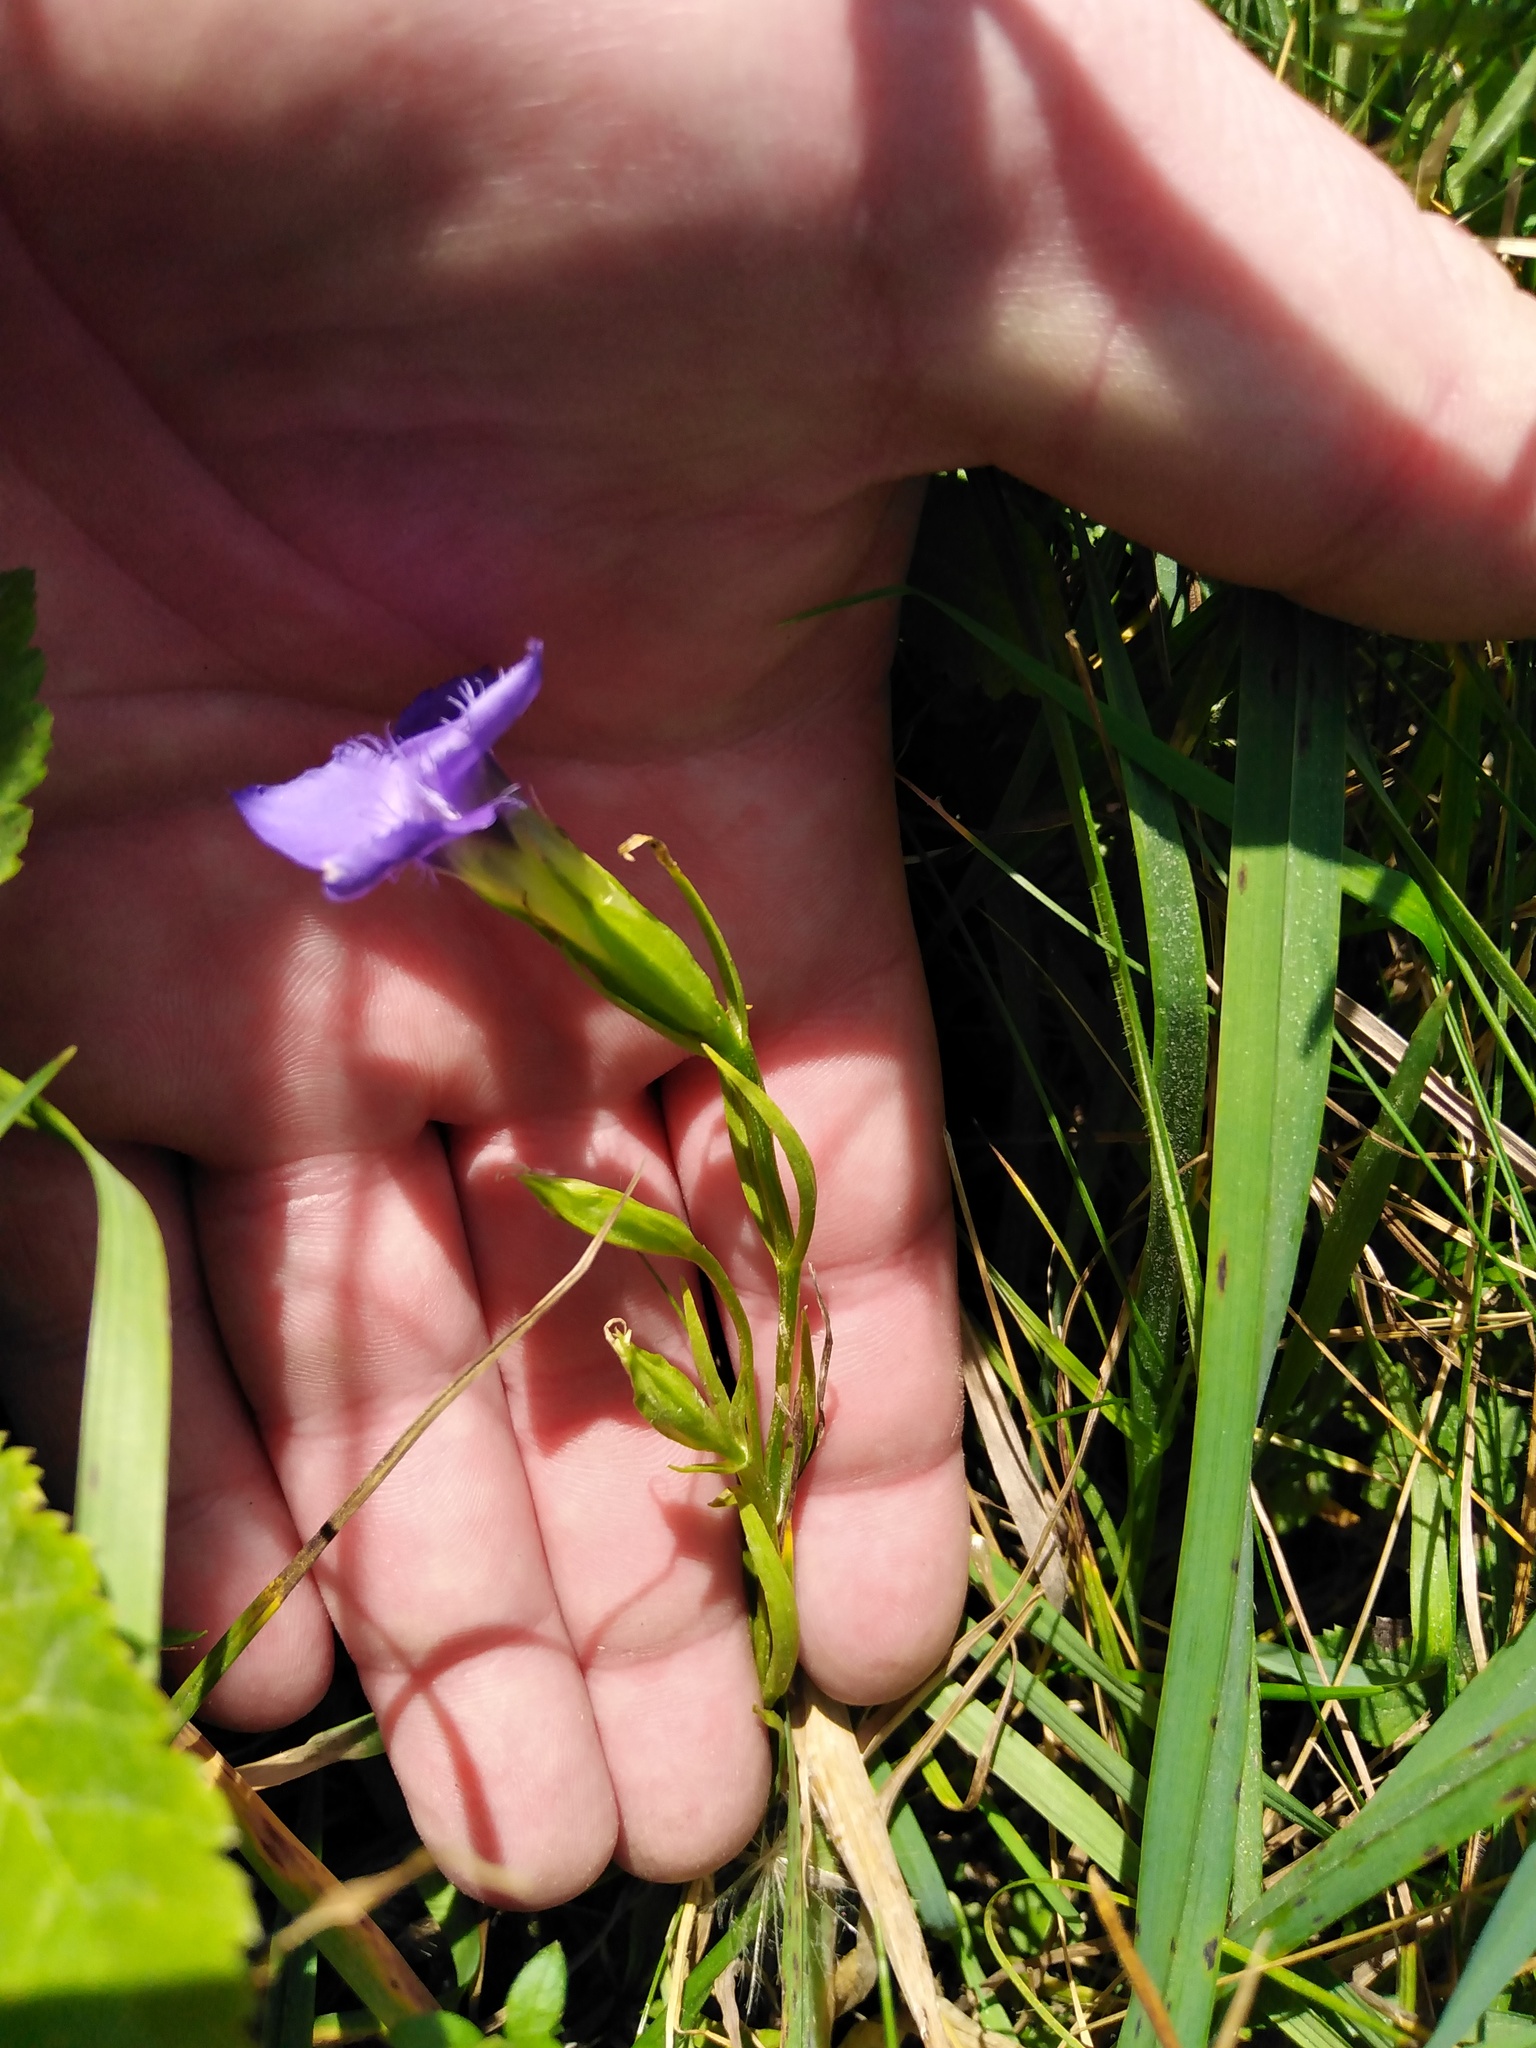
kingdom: Plantae
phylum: Tracheophyta
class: Magnoliopsida
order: Gentianales
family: Gentianaceae
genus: Gentianopsis
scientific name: Gentianopsis ciliata
